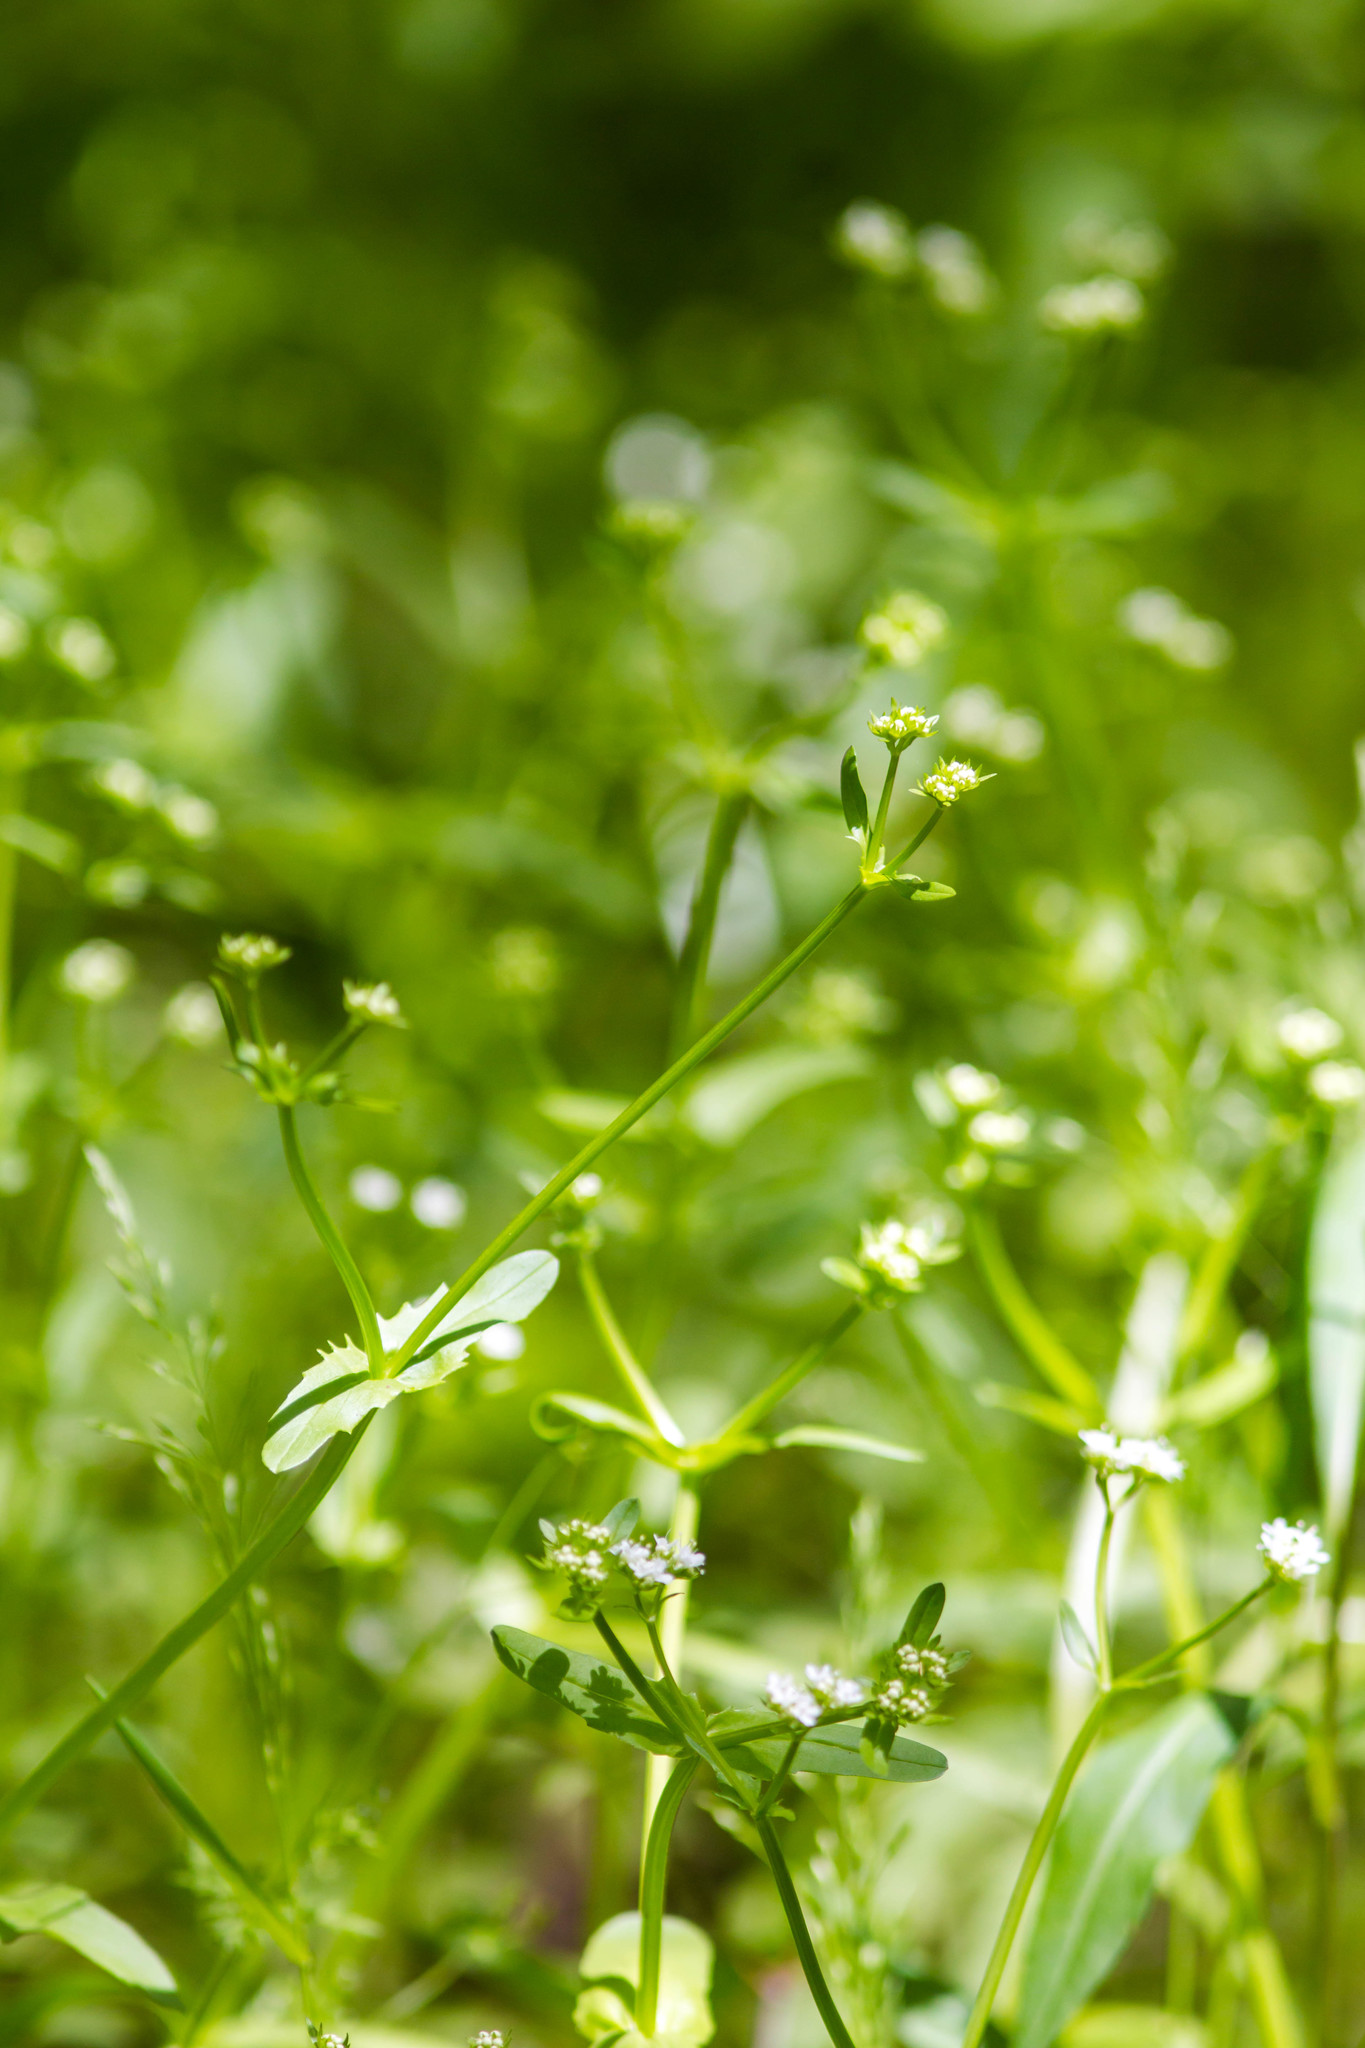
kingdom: Plantae
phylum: Tracheophyta
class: Magnoliopsida
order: Dipsacales
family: Caprifoliaceae
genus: Valerianella
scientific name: Valerianella radiata
